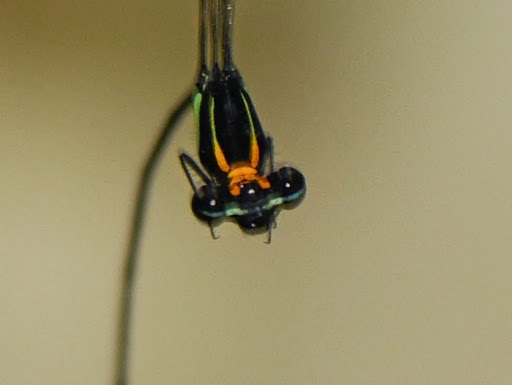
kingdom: Animalia
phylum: Arthropoda
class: Insecta
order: Odonata
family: Platycnemididae
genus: Allocnemis
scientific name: Allocnemis nigripes
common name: Rainbow yellowwing
